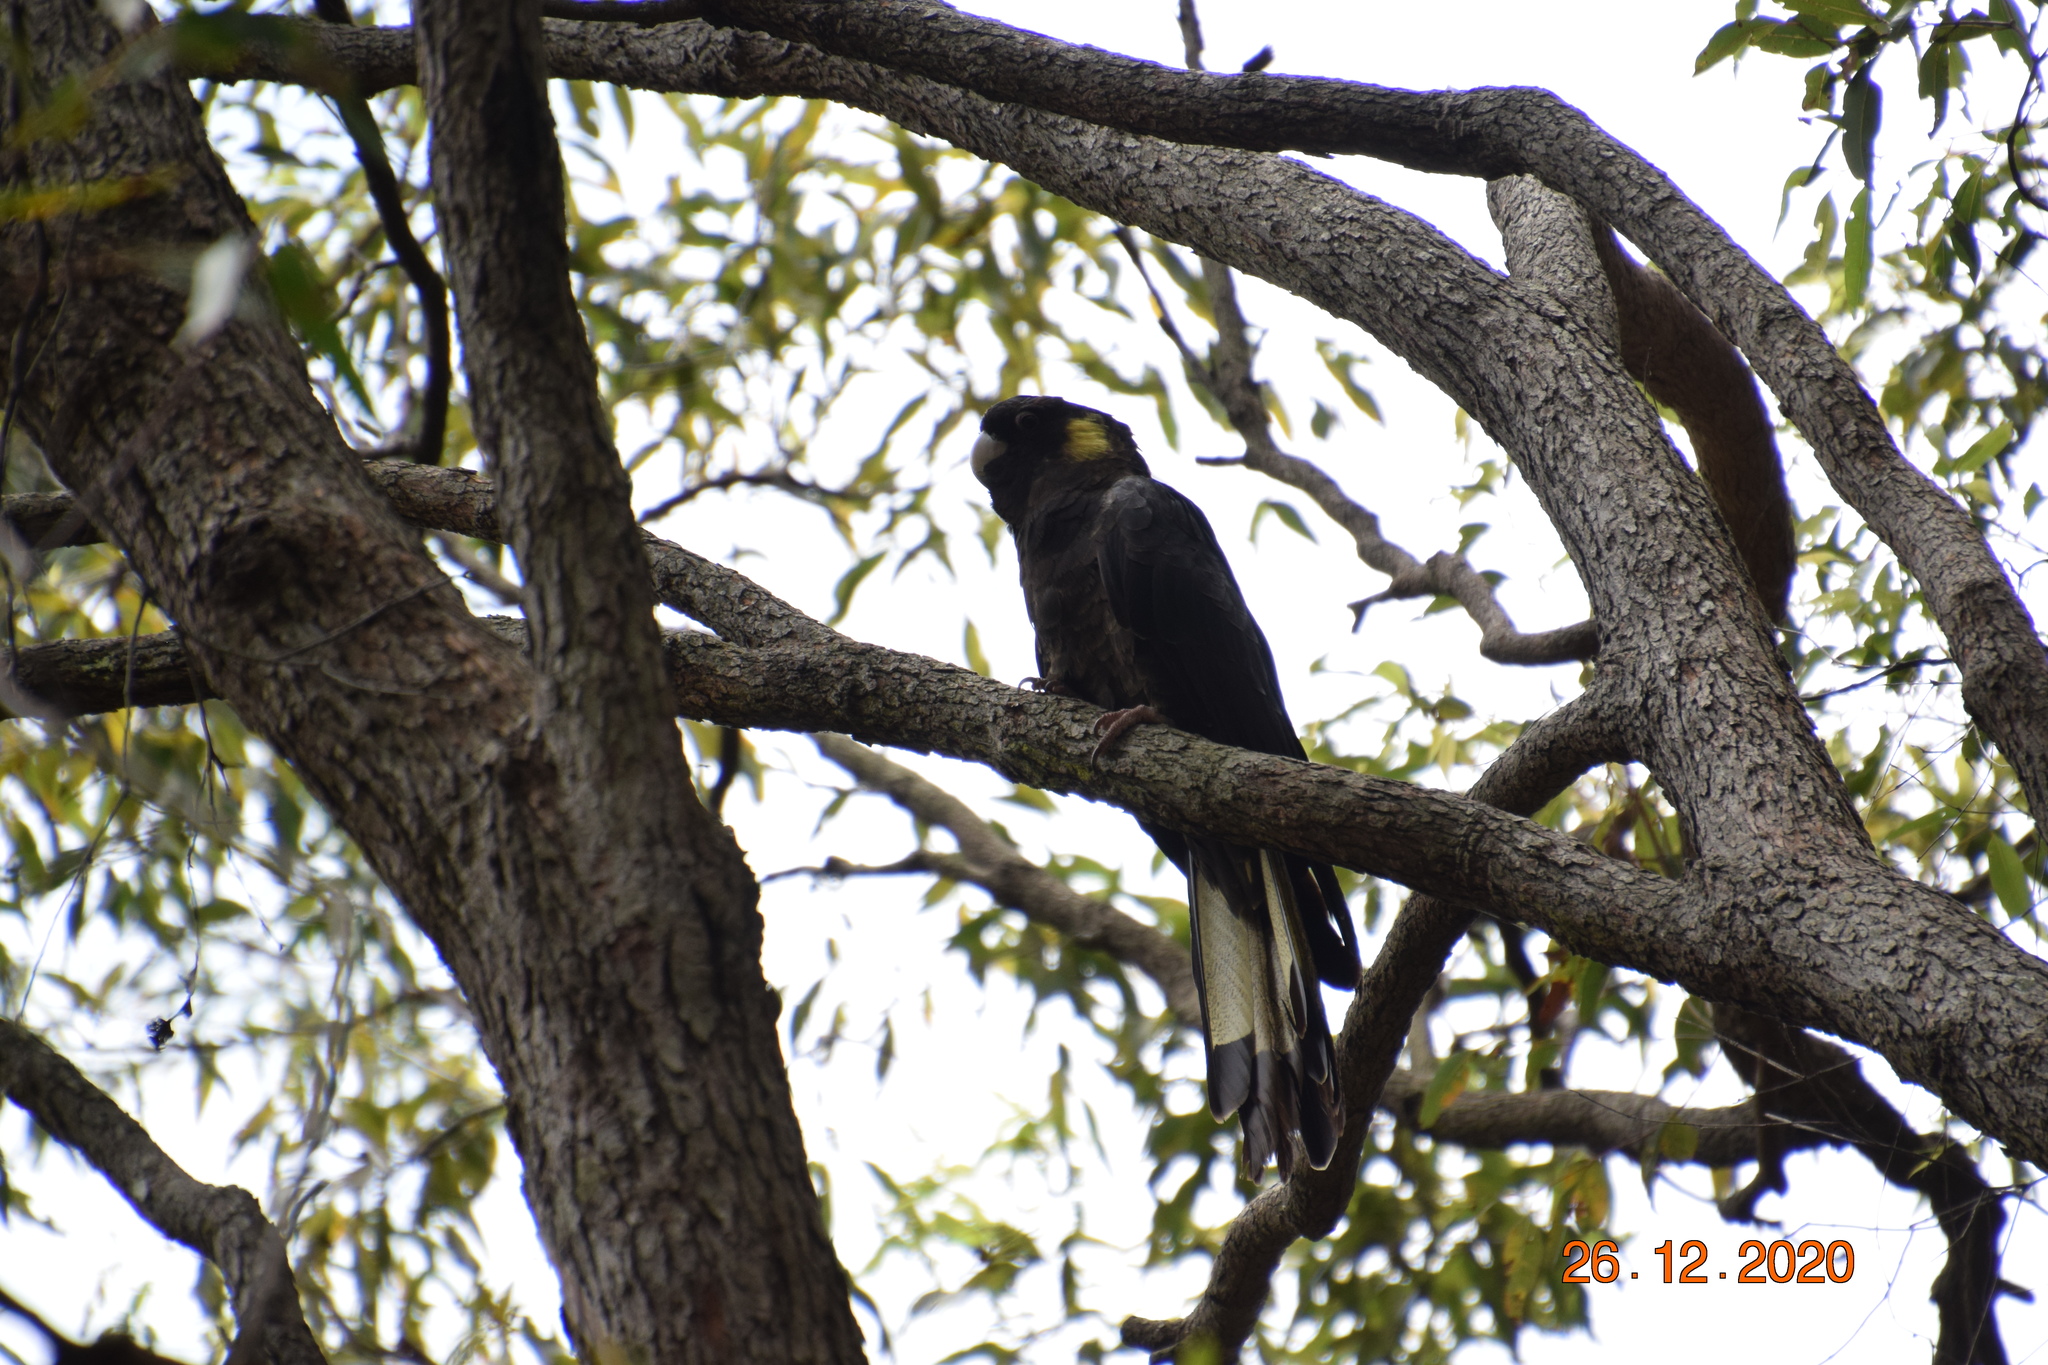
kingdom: Animalia
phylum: Chordata
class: Aves
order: Psittaciformes
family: Cacatuidae
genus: Zanda
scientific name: Zanda funerea
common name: Yellow-tailed black-cockatoo
